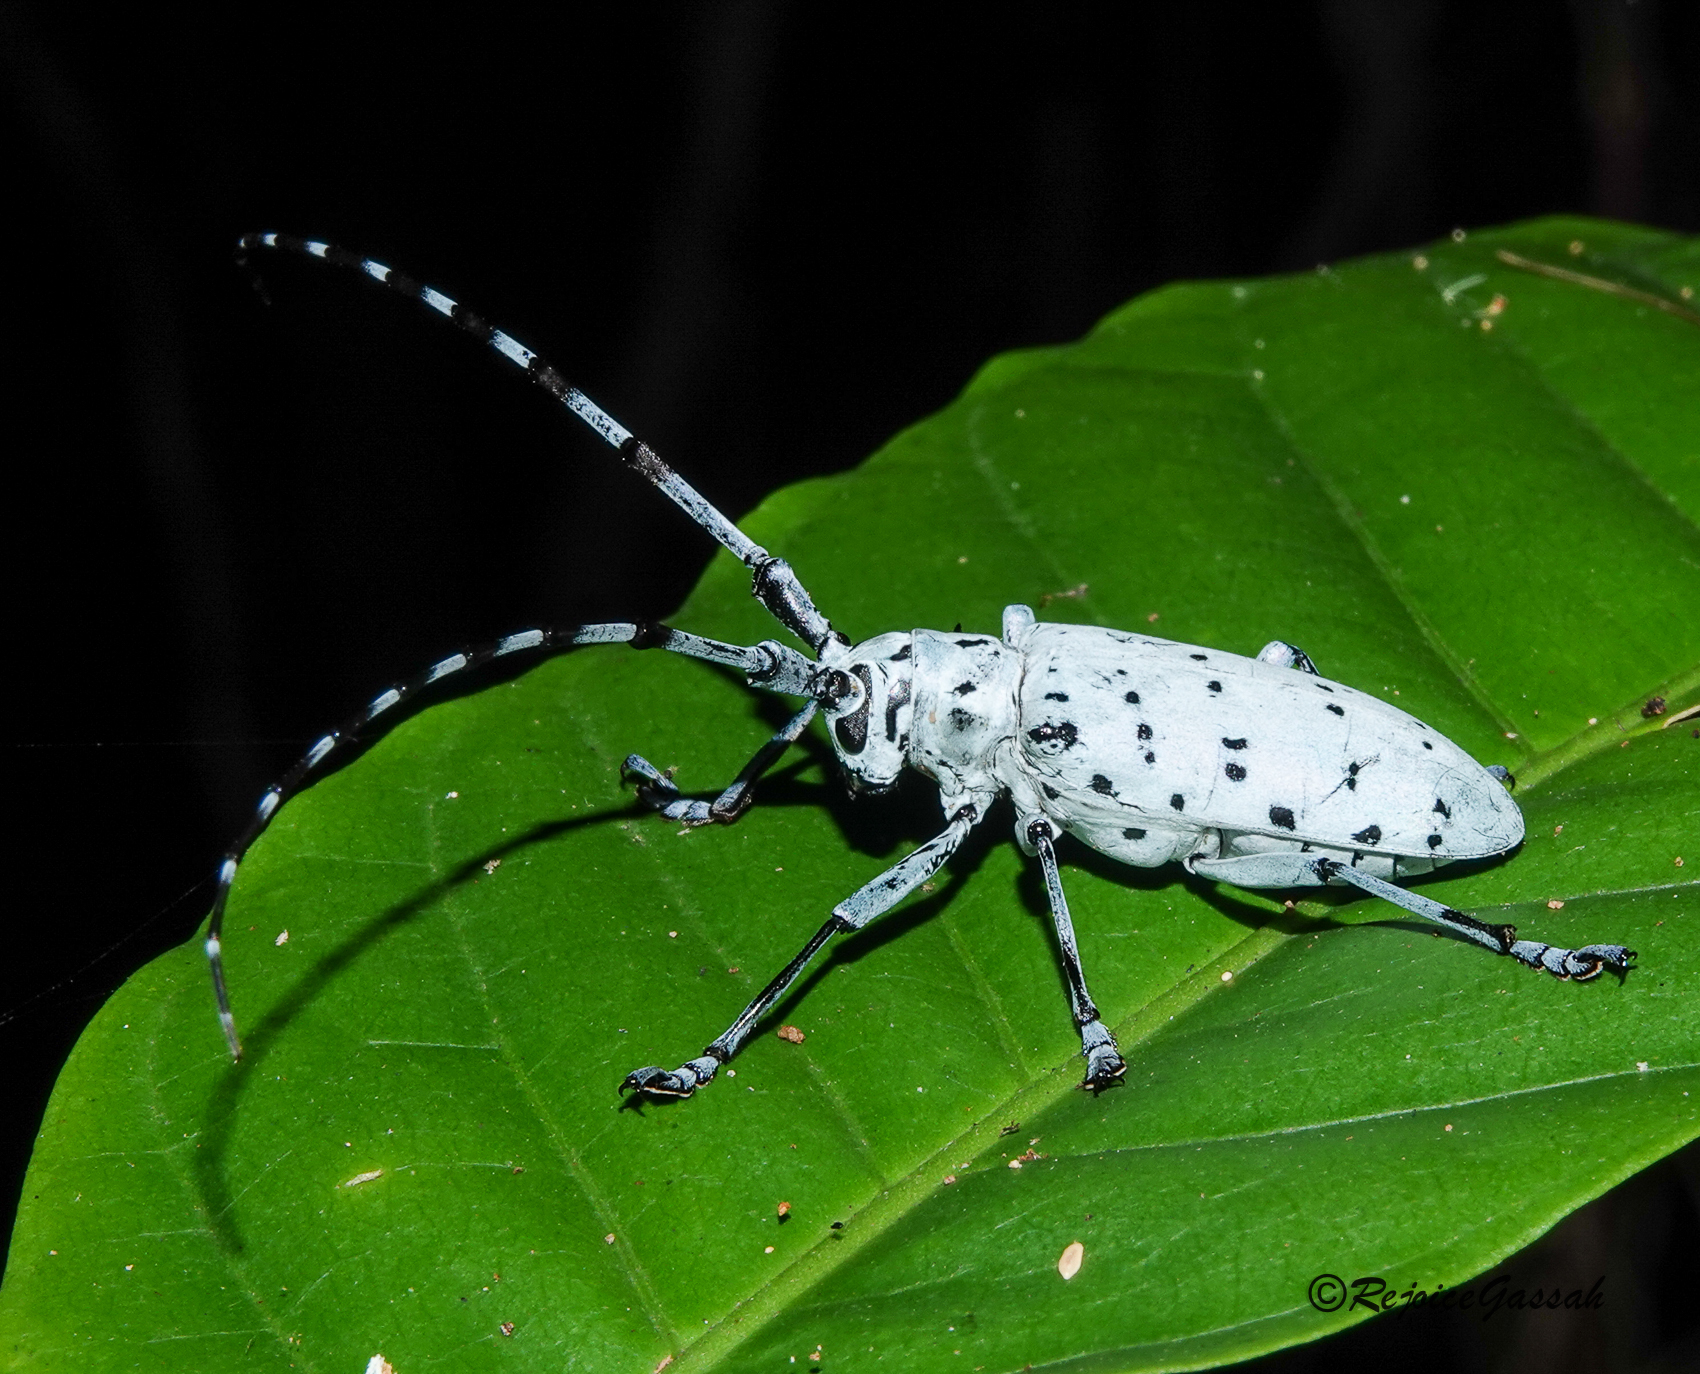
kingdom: Animalia
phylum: Arthropoda
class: Insecta
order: Coleoptera
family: Cerambycidae
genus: Pseudonemophas
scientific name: Pseudonemophas versteegii
